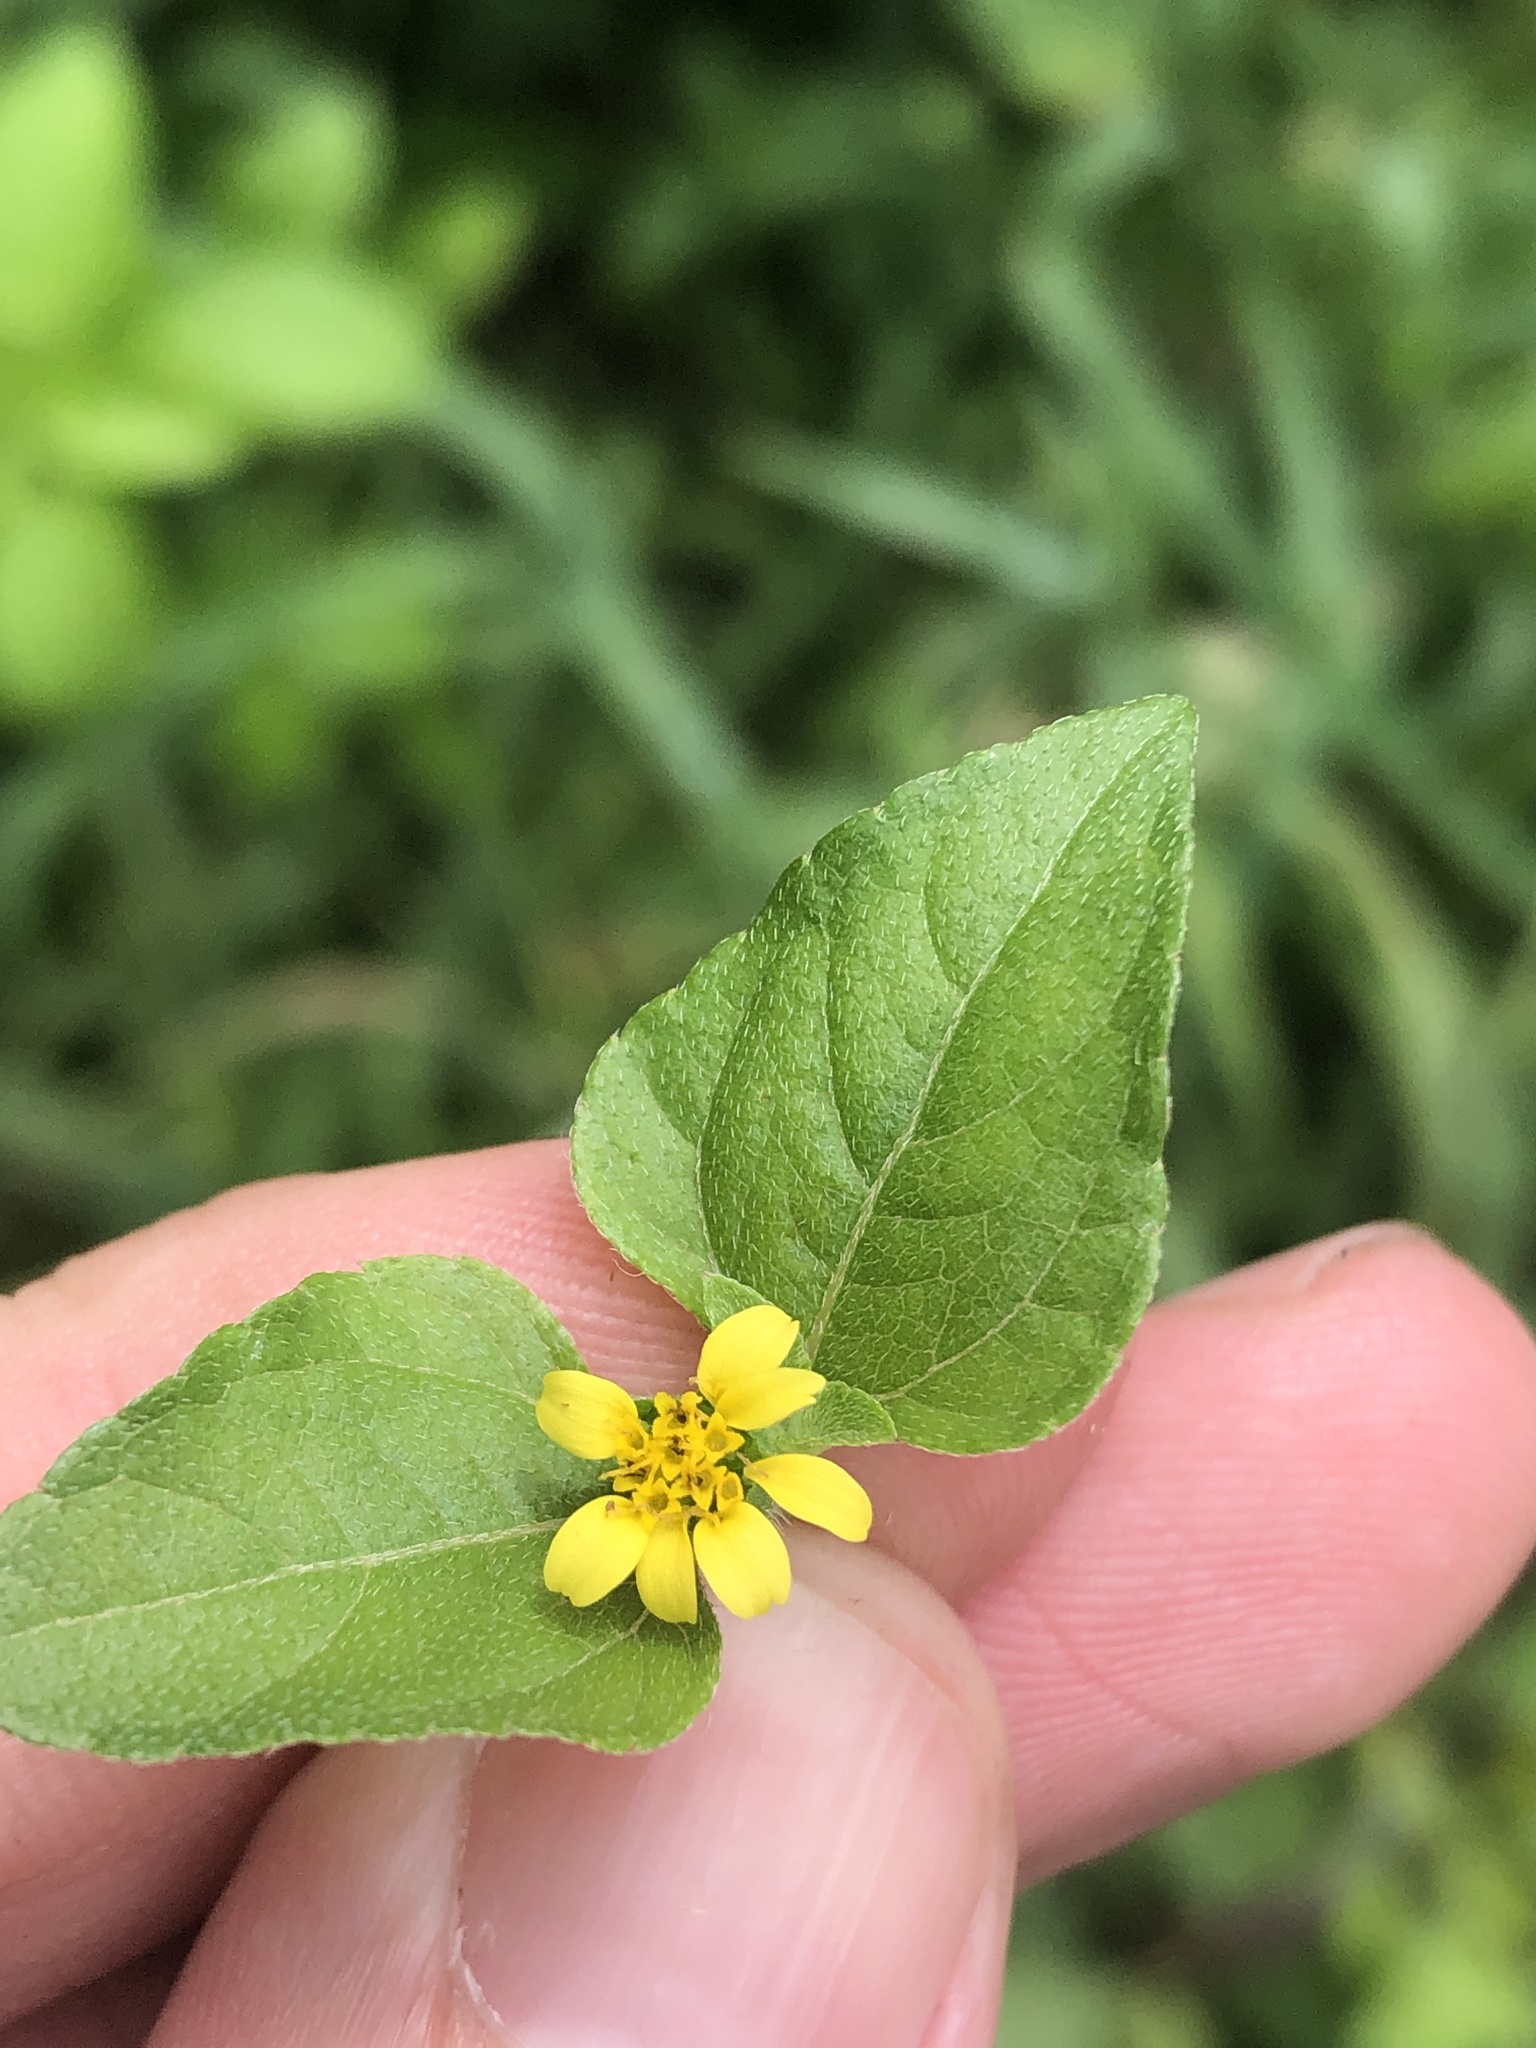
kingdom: Plantae
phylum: Tracheophyta
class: Magnoliopsida
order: Asterales
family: Asteraceae
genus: Calyptocarpus
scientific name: Calyptocarpus vialis
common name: Straggler daisy
